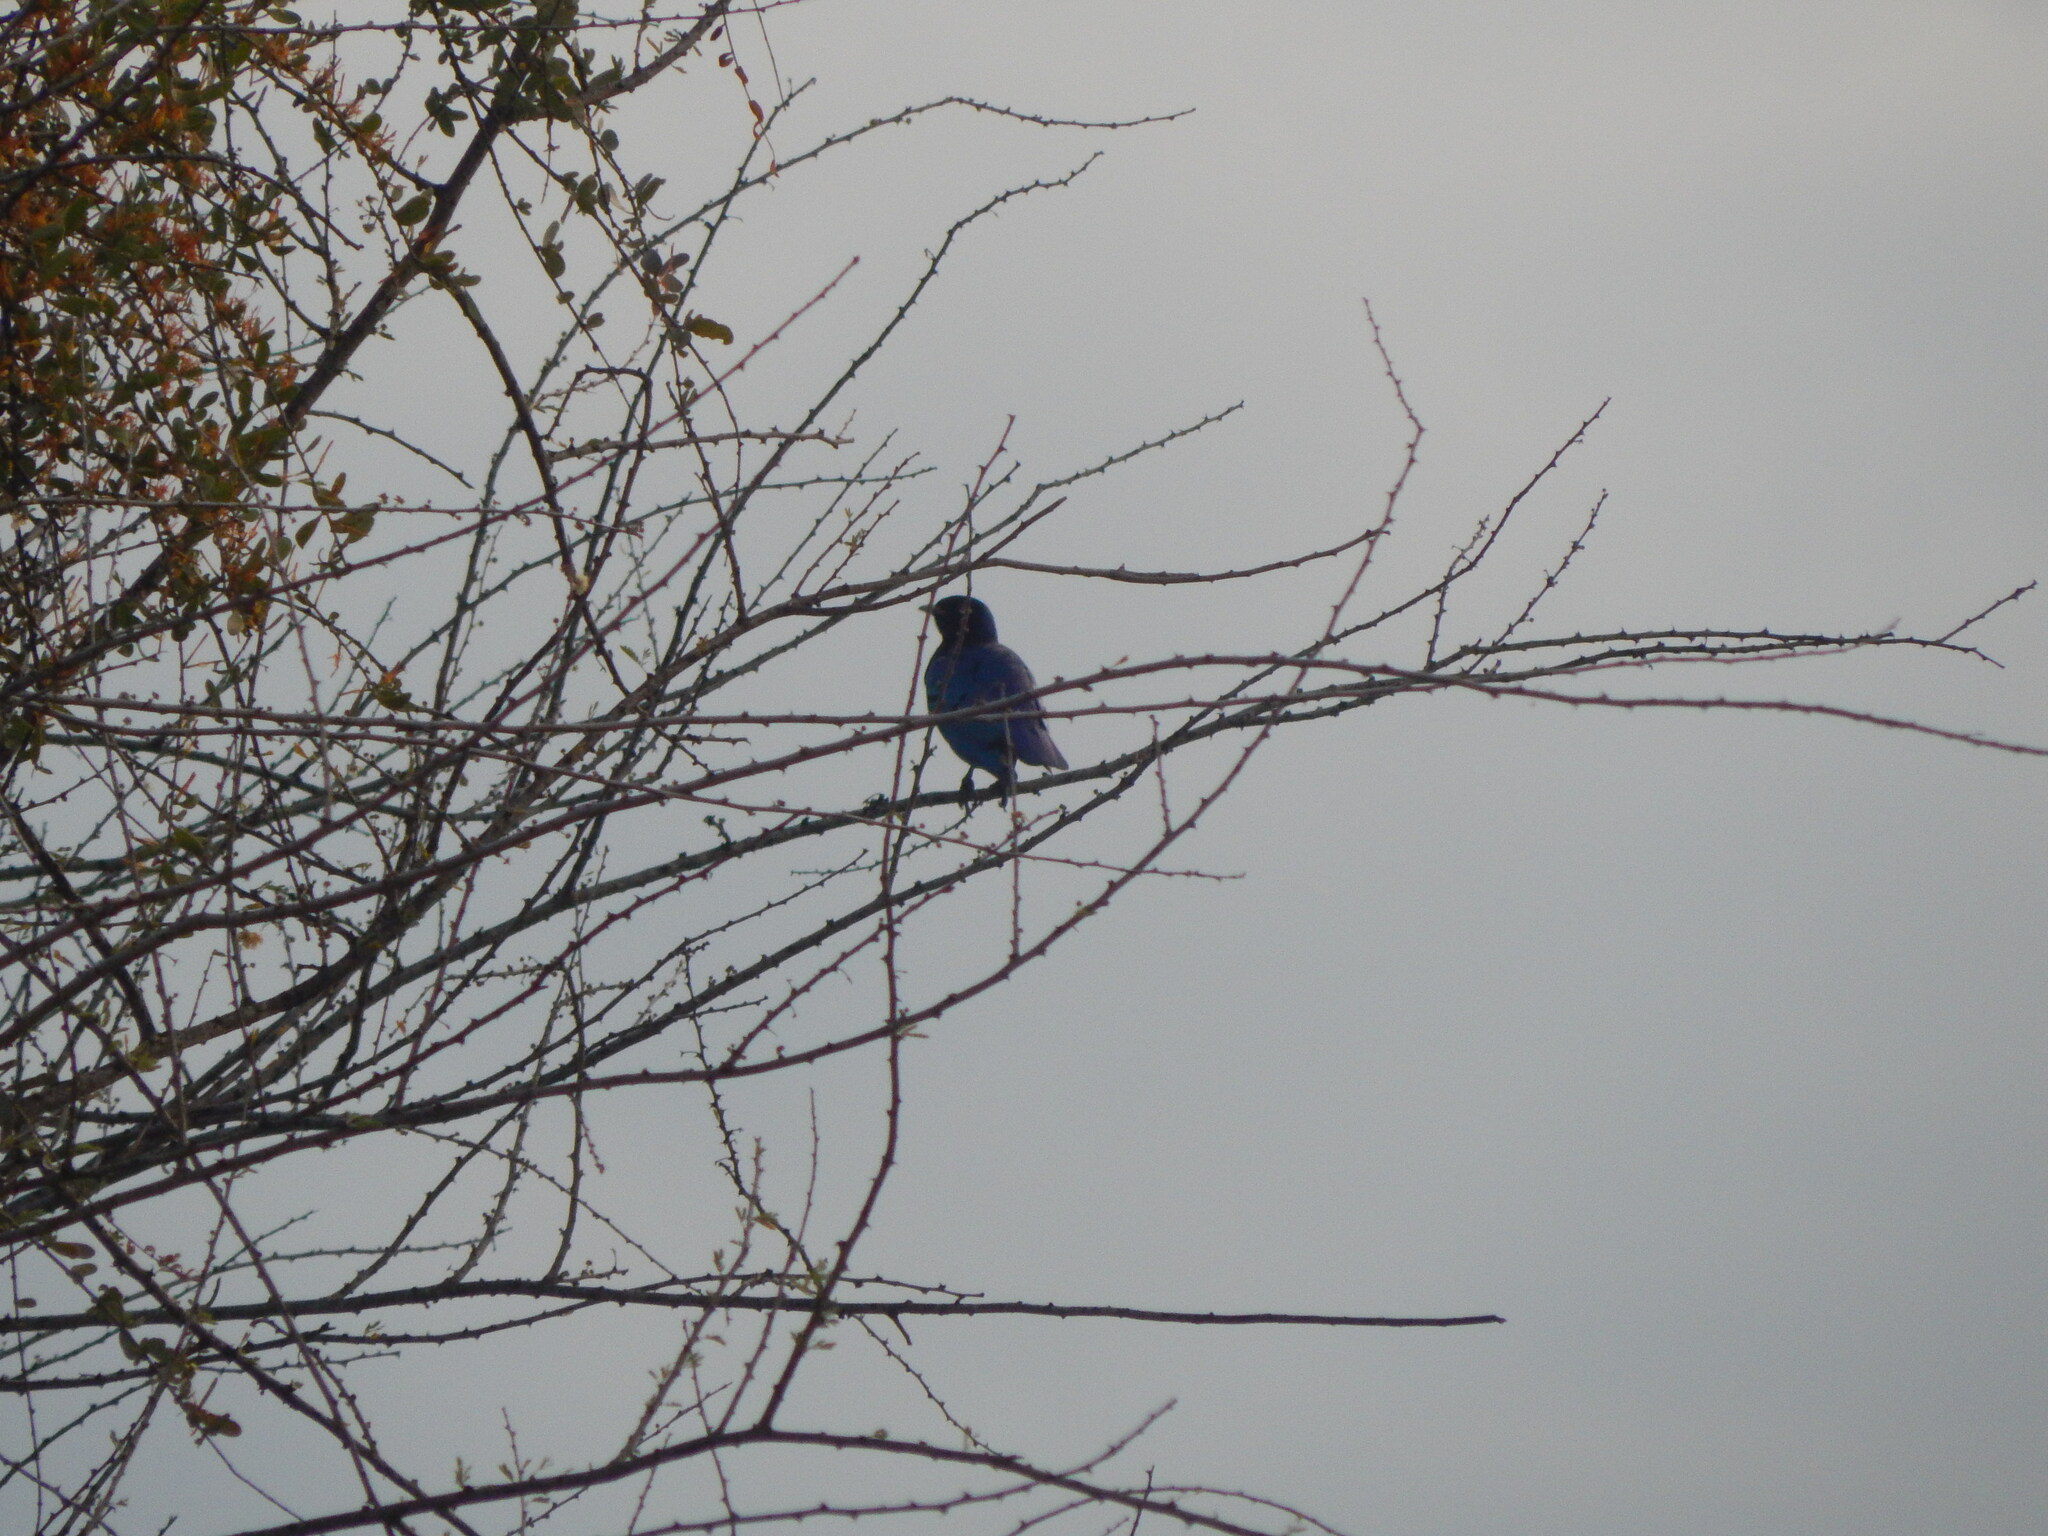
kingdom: Animalia
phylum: Chordata
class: Aves
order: Passeriformes
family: Sturnidae
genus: Lamprotornis
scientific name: Lamprotornis superbus
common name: Superb starling
